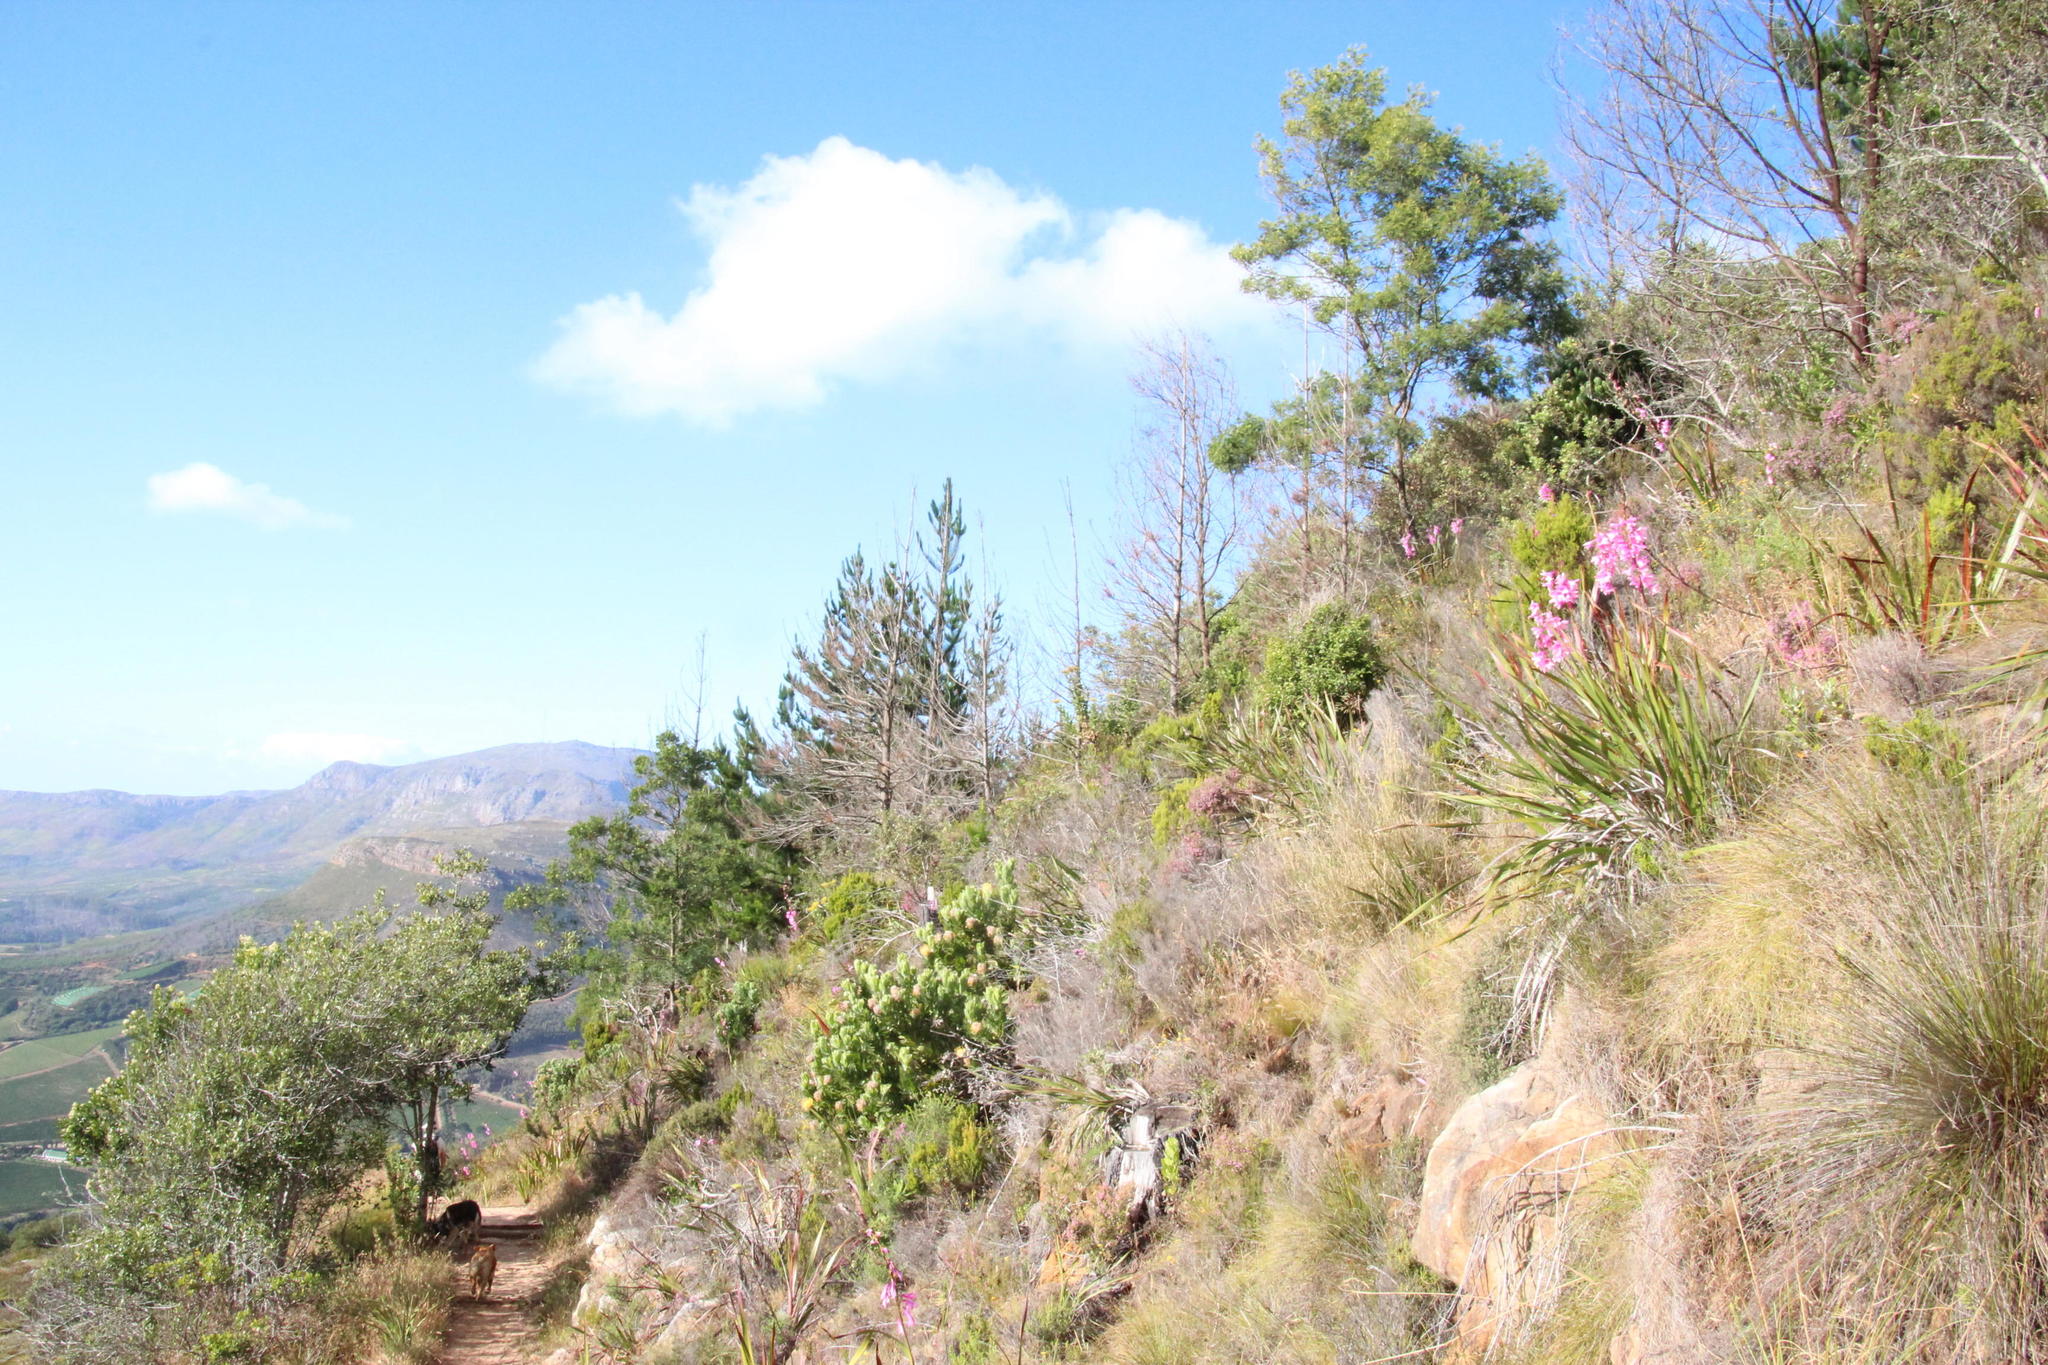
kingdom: Plantae
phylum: Tracheophyta
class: Pinopsida
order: Pinales
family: Pinaceae
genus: Pinus
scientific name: Pinus radiata
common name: Monterey pine
